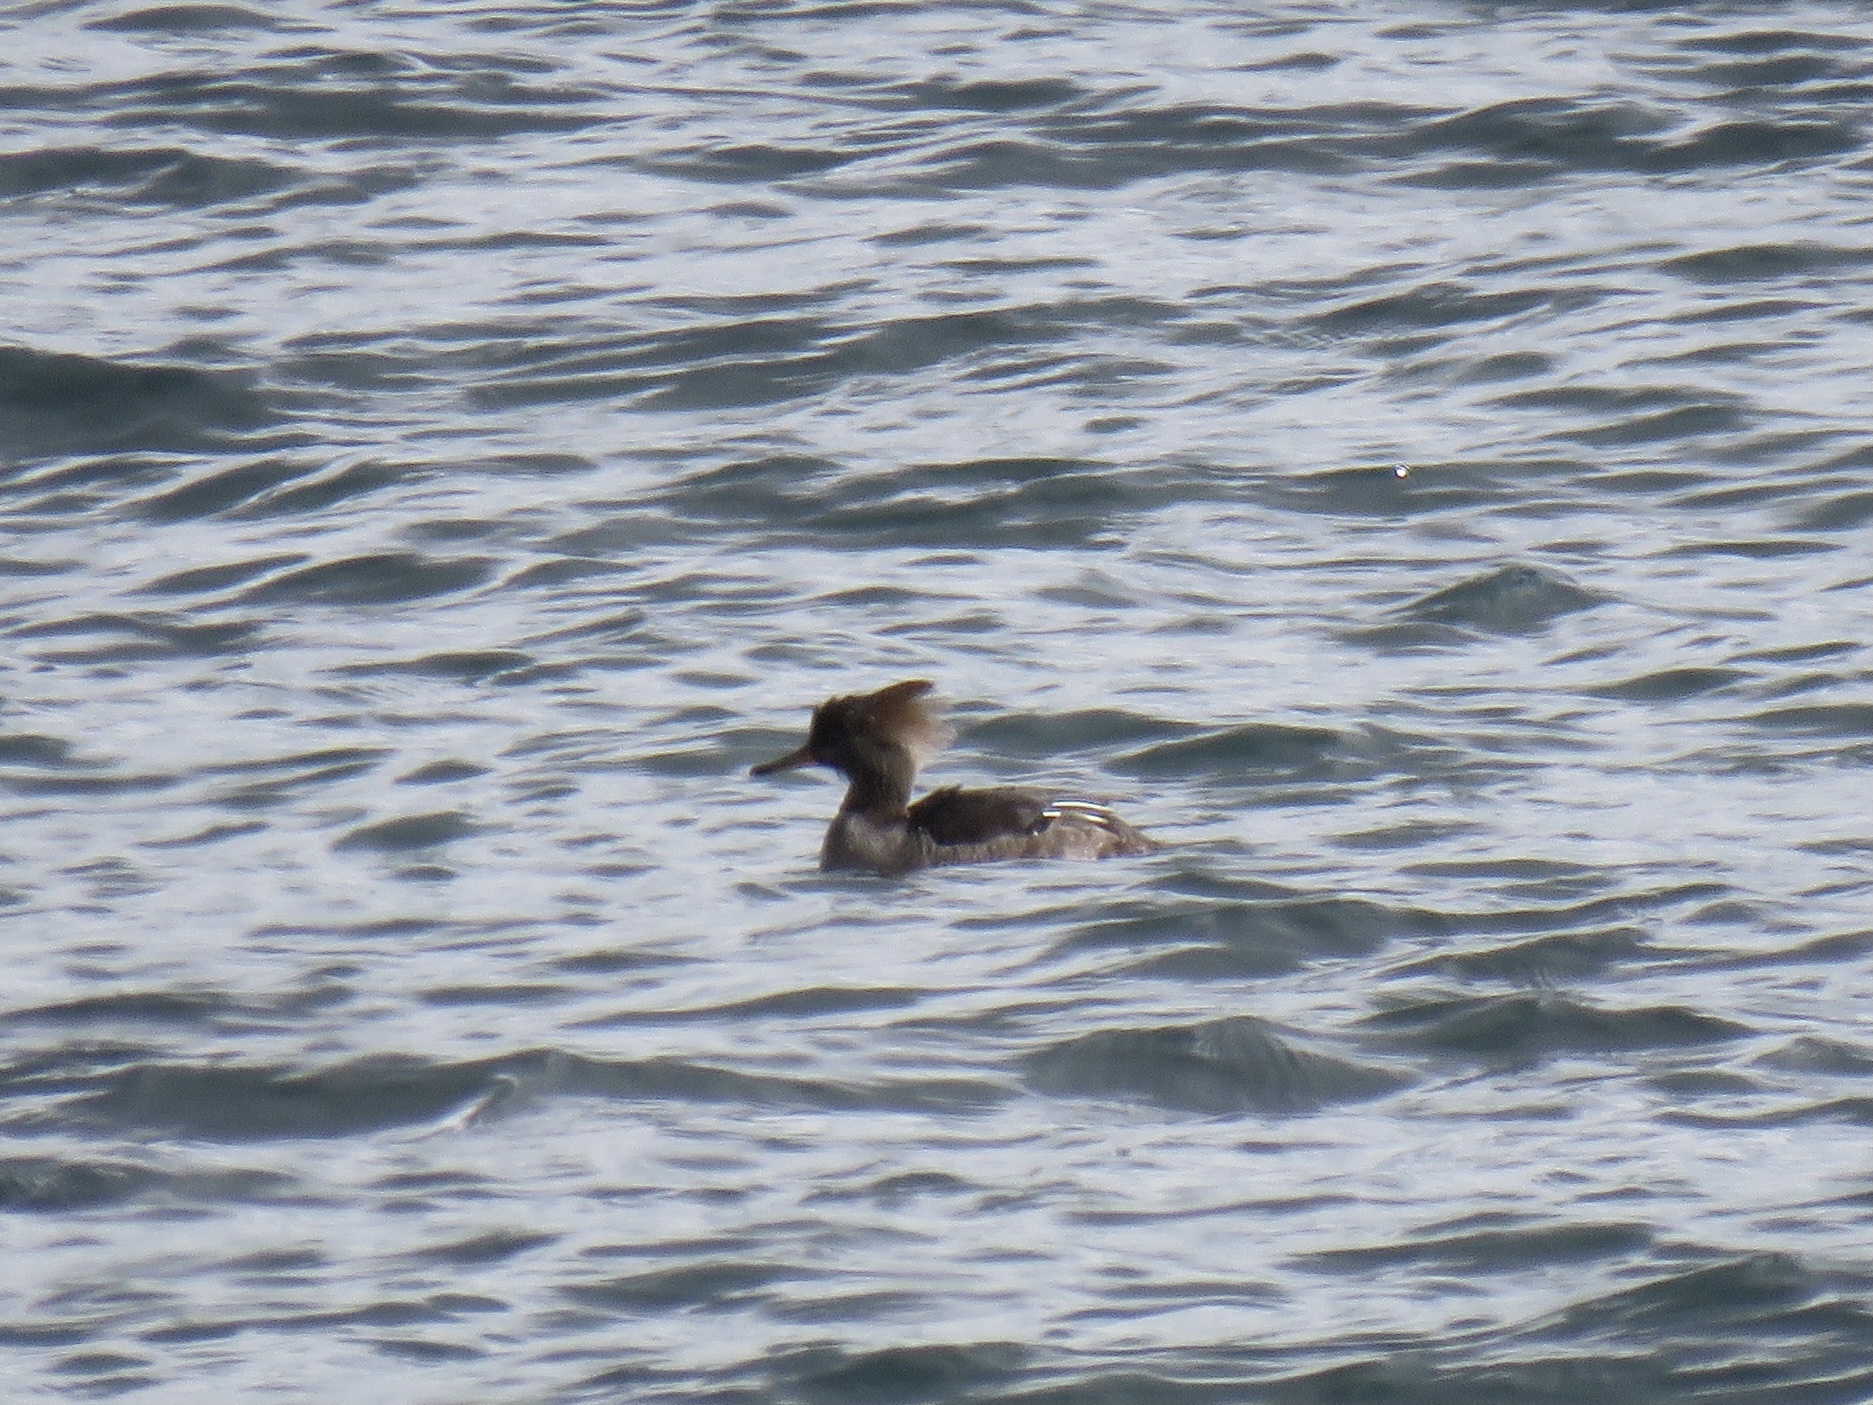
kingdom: Animalia
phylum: Chordata
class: Aves
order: Anseriformes
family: Anatidae
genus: Lophodytes
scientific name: Lophodytes cucullatus
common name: Hooded merganser
